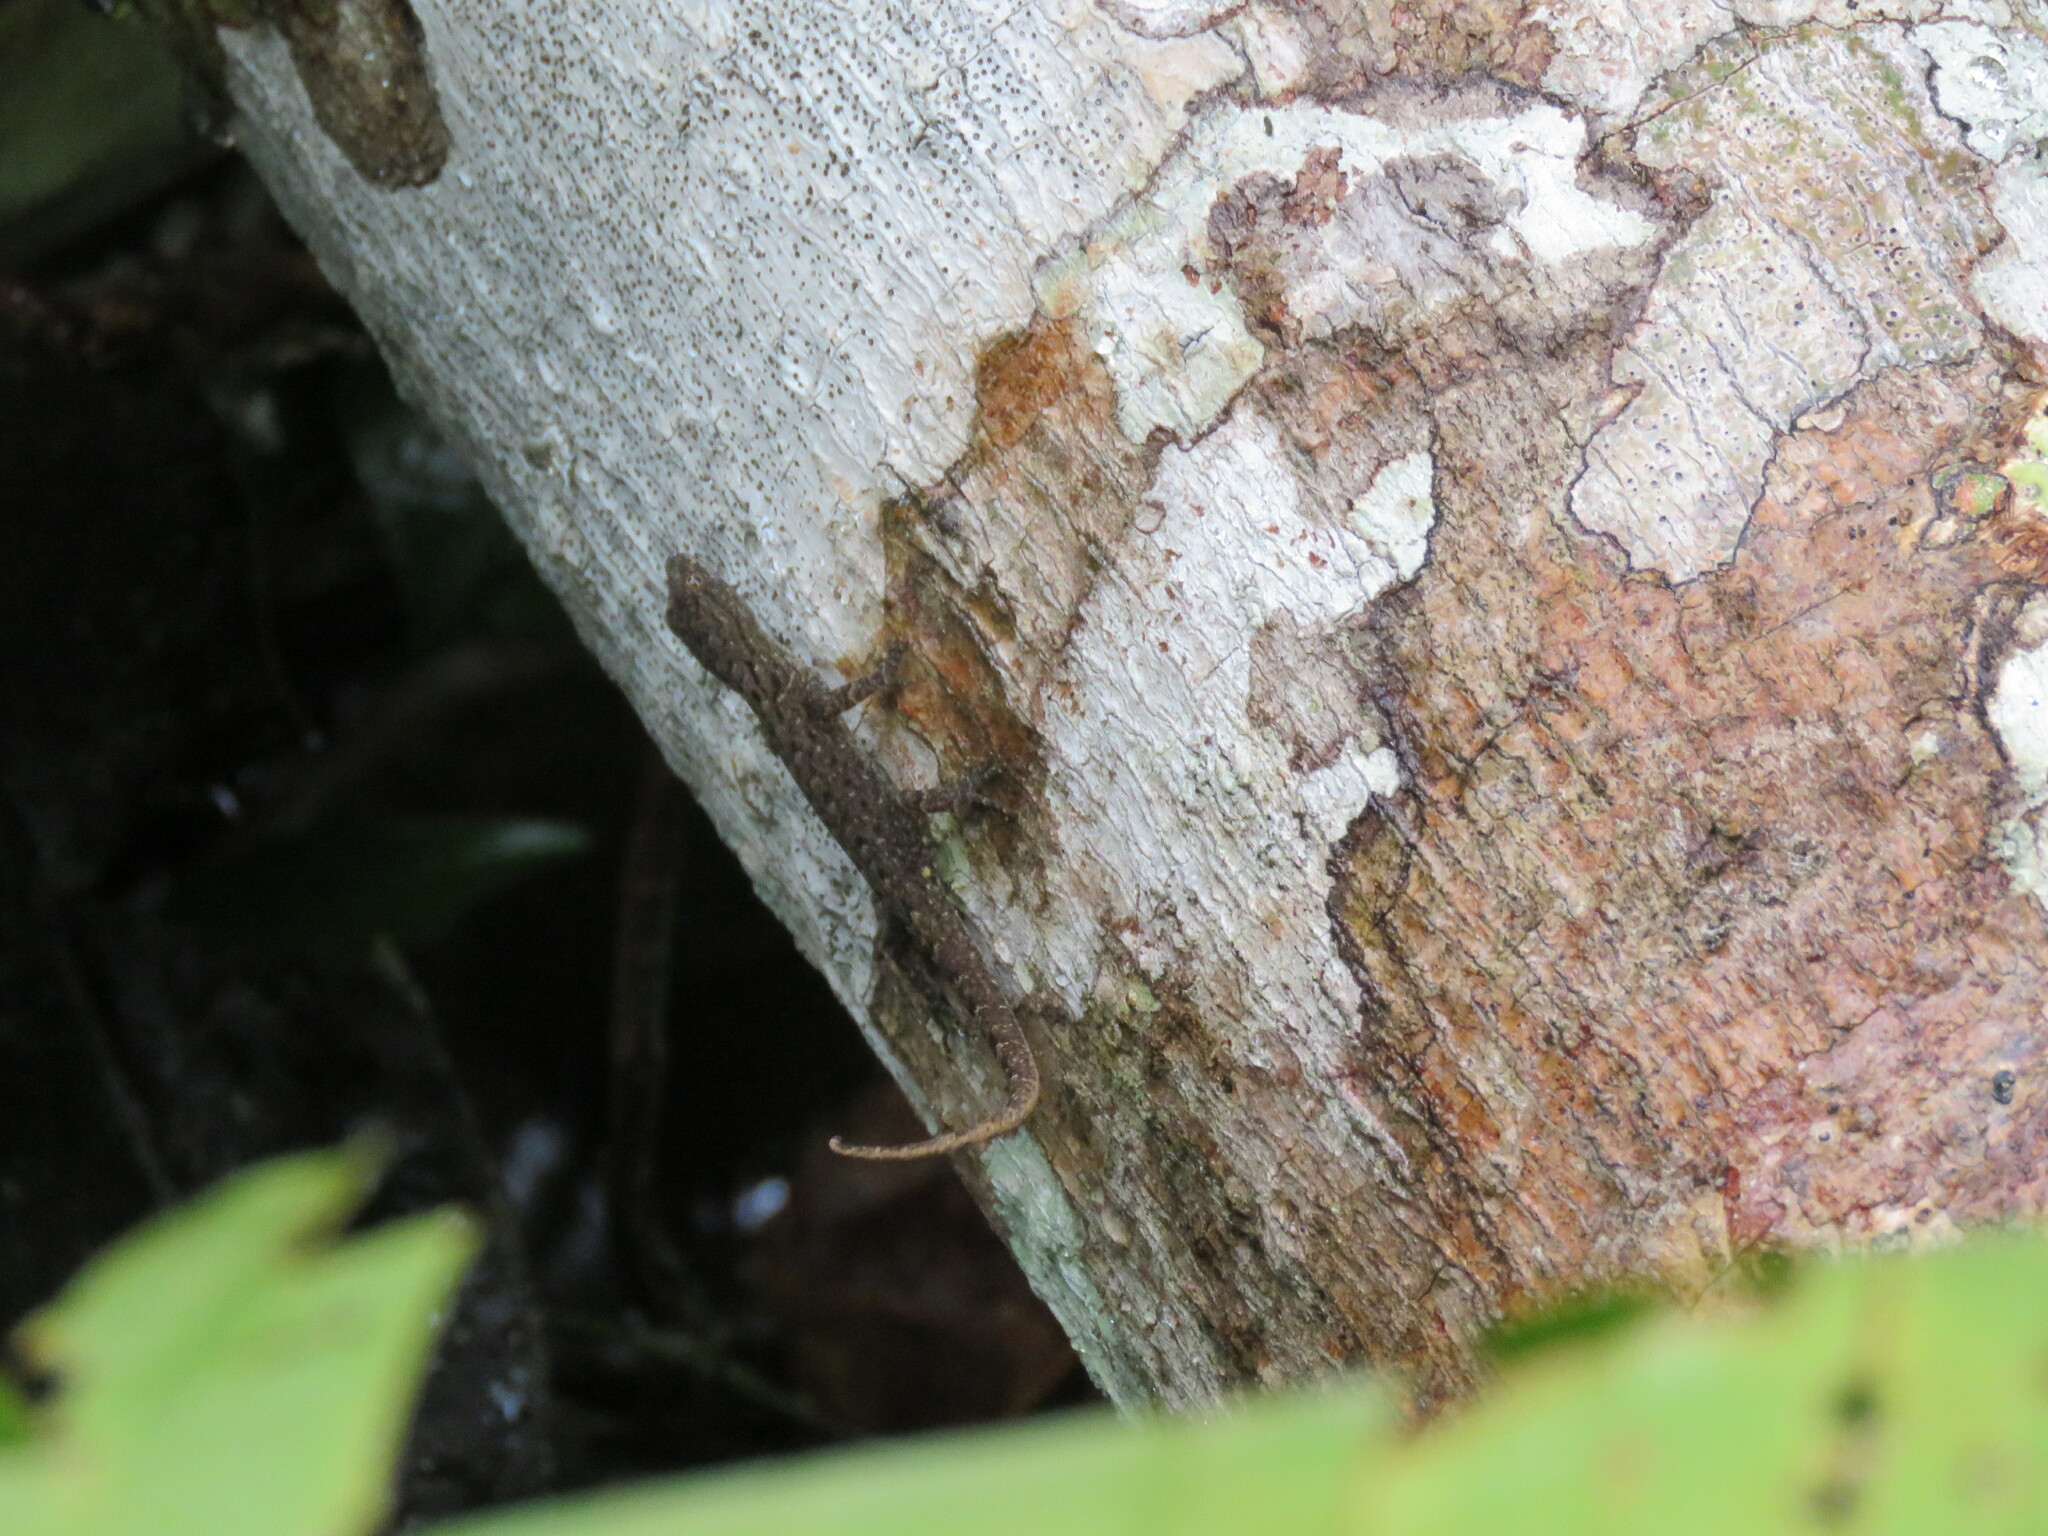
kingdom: Animalia
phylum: Chordata
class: Squamata
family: Sphaerodactylidae
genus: Gonatodes
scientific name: Gonatodes humeralis
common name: South american clawed gecko
